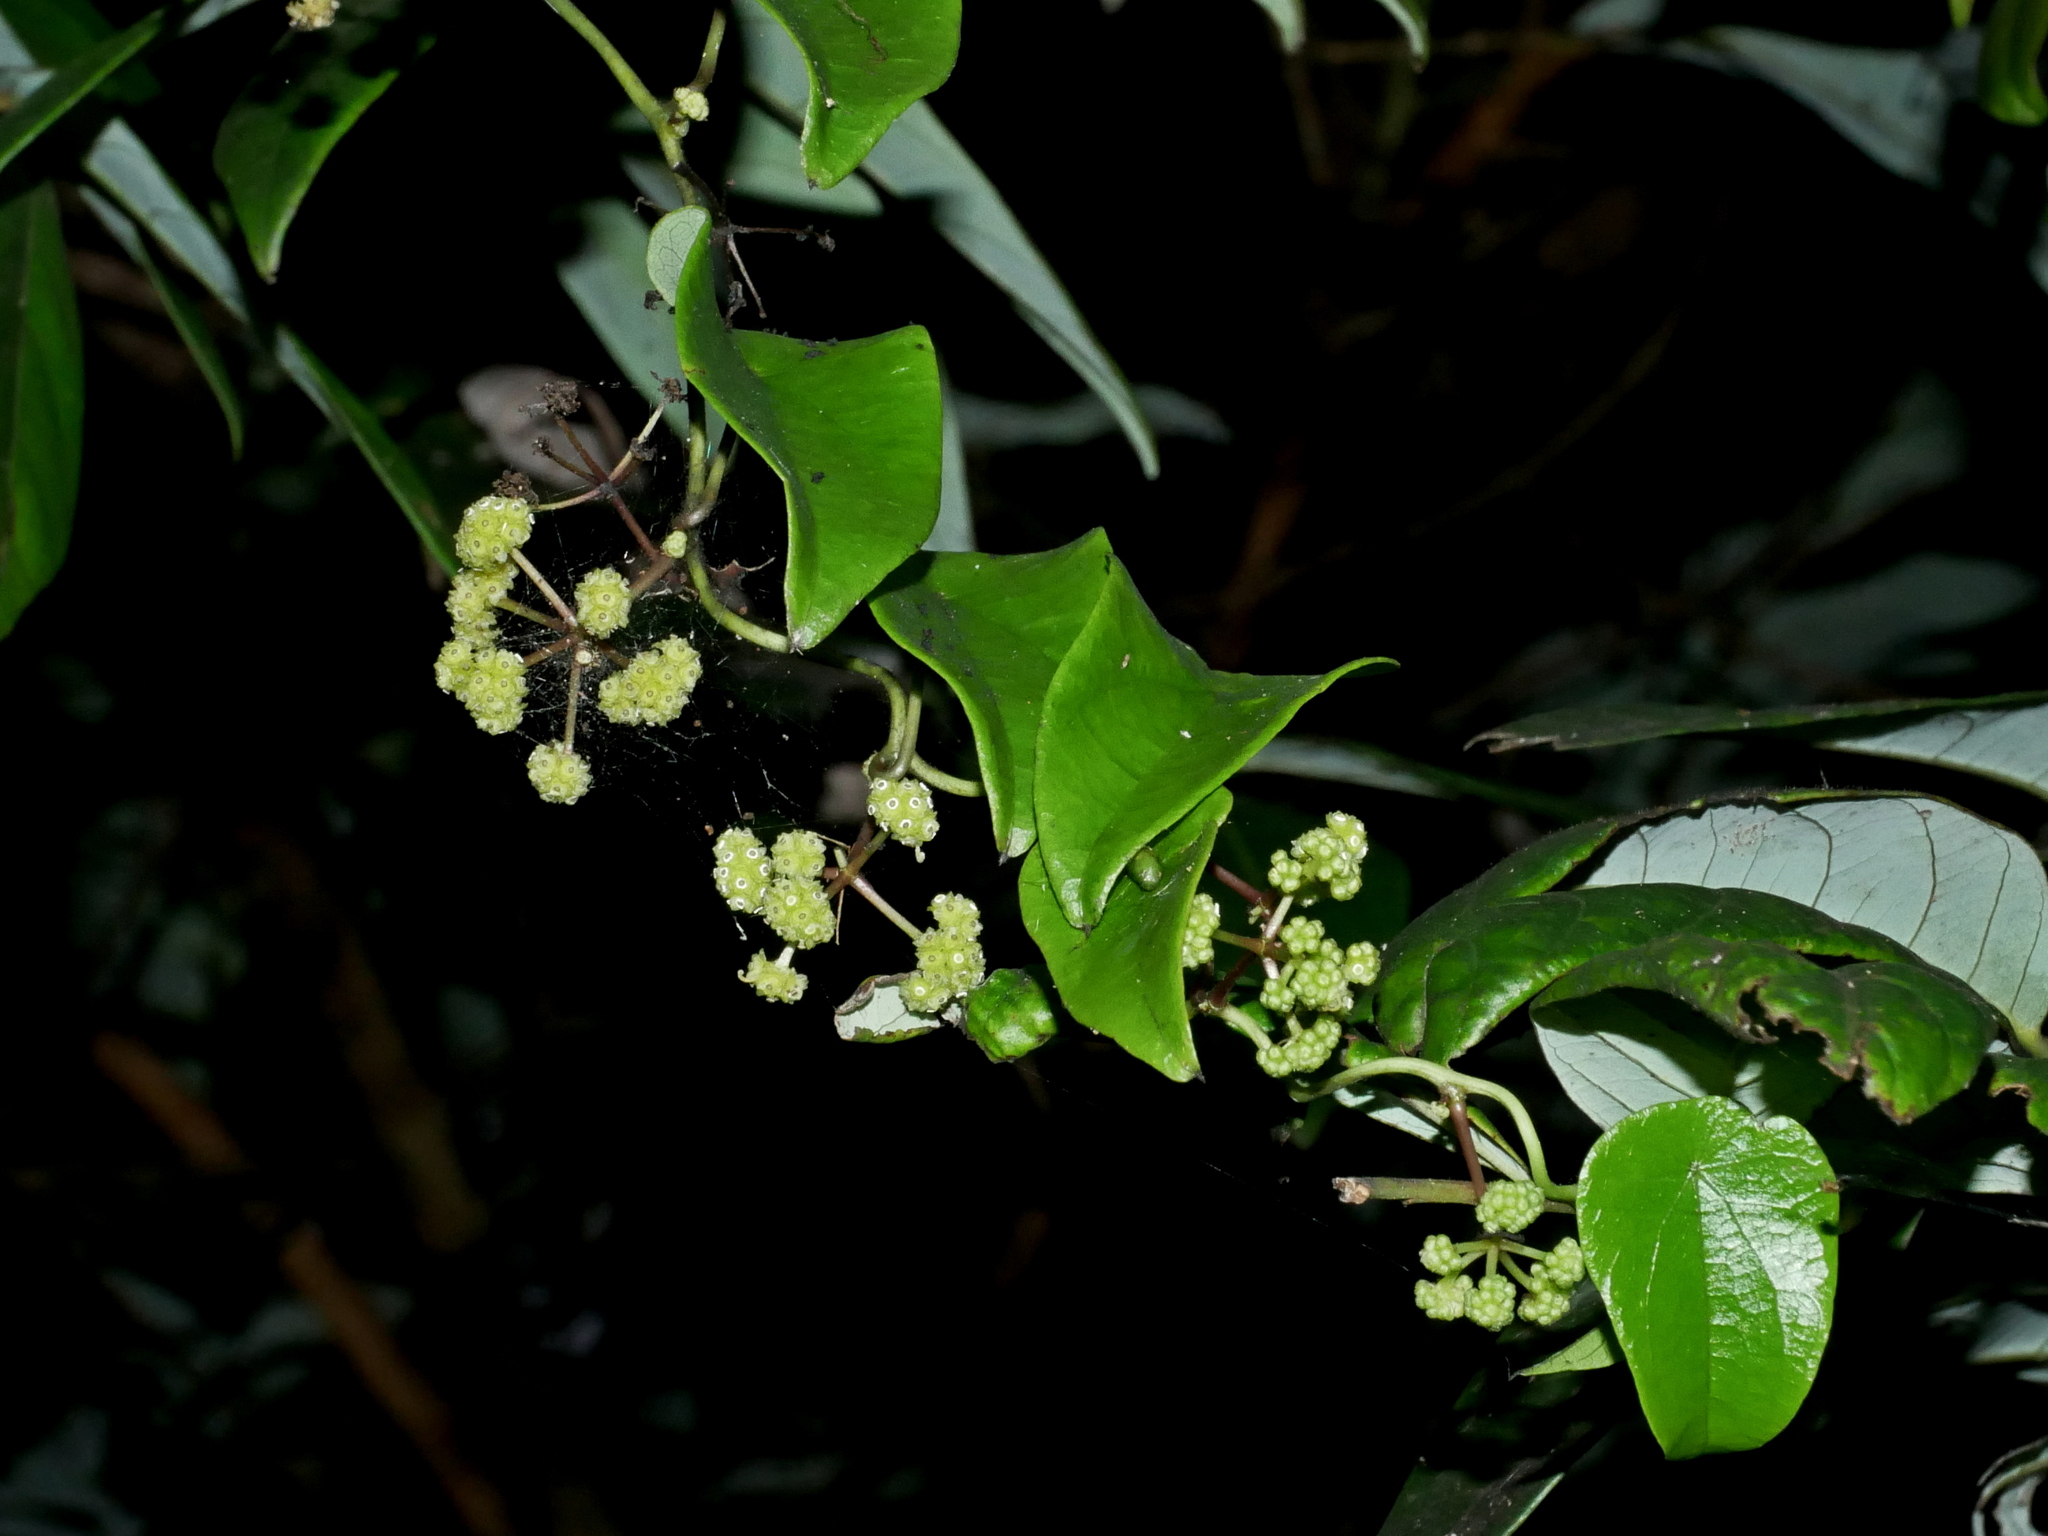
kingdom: Plantae
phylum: Tracheophyta
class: Magnoliopsida
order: Ranunculales
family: Menispermaceae
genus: Stephania
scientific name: Stephania japonica
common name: Snake vine
